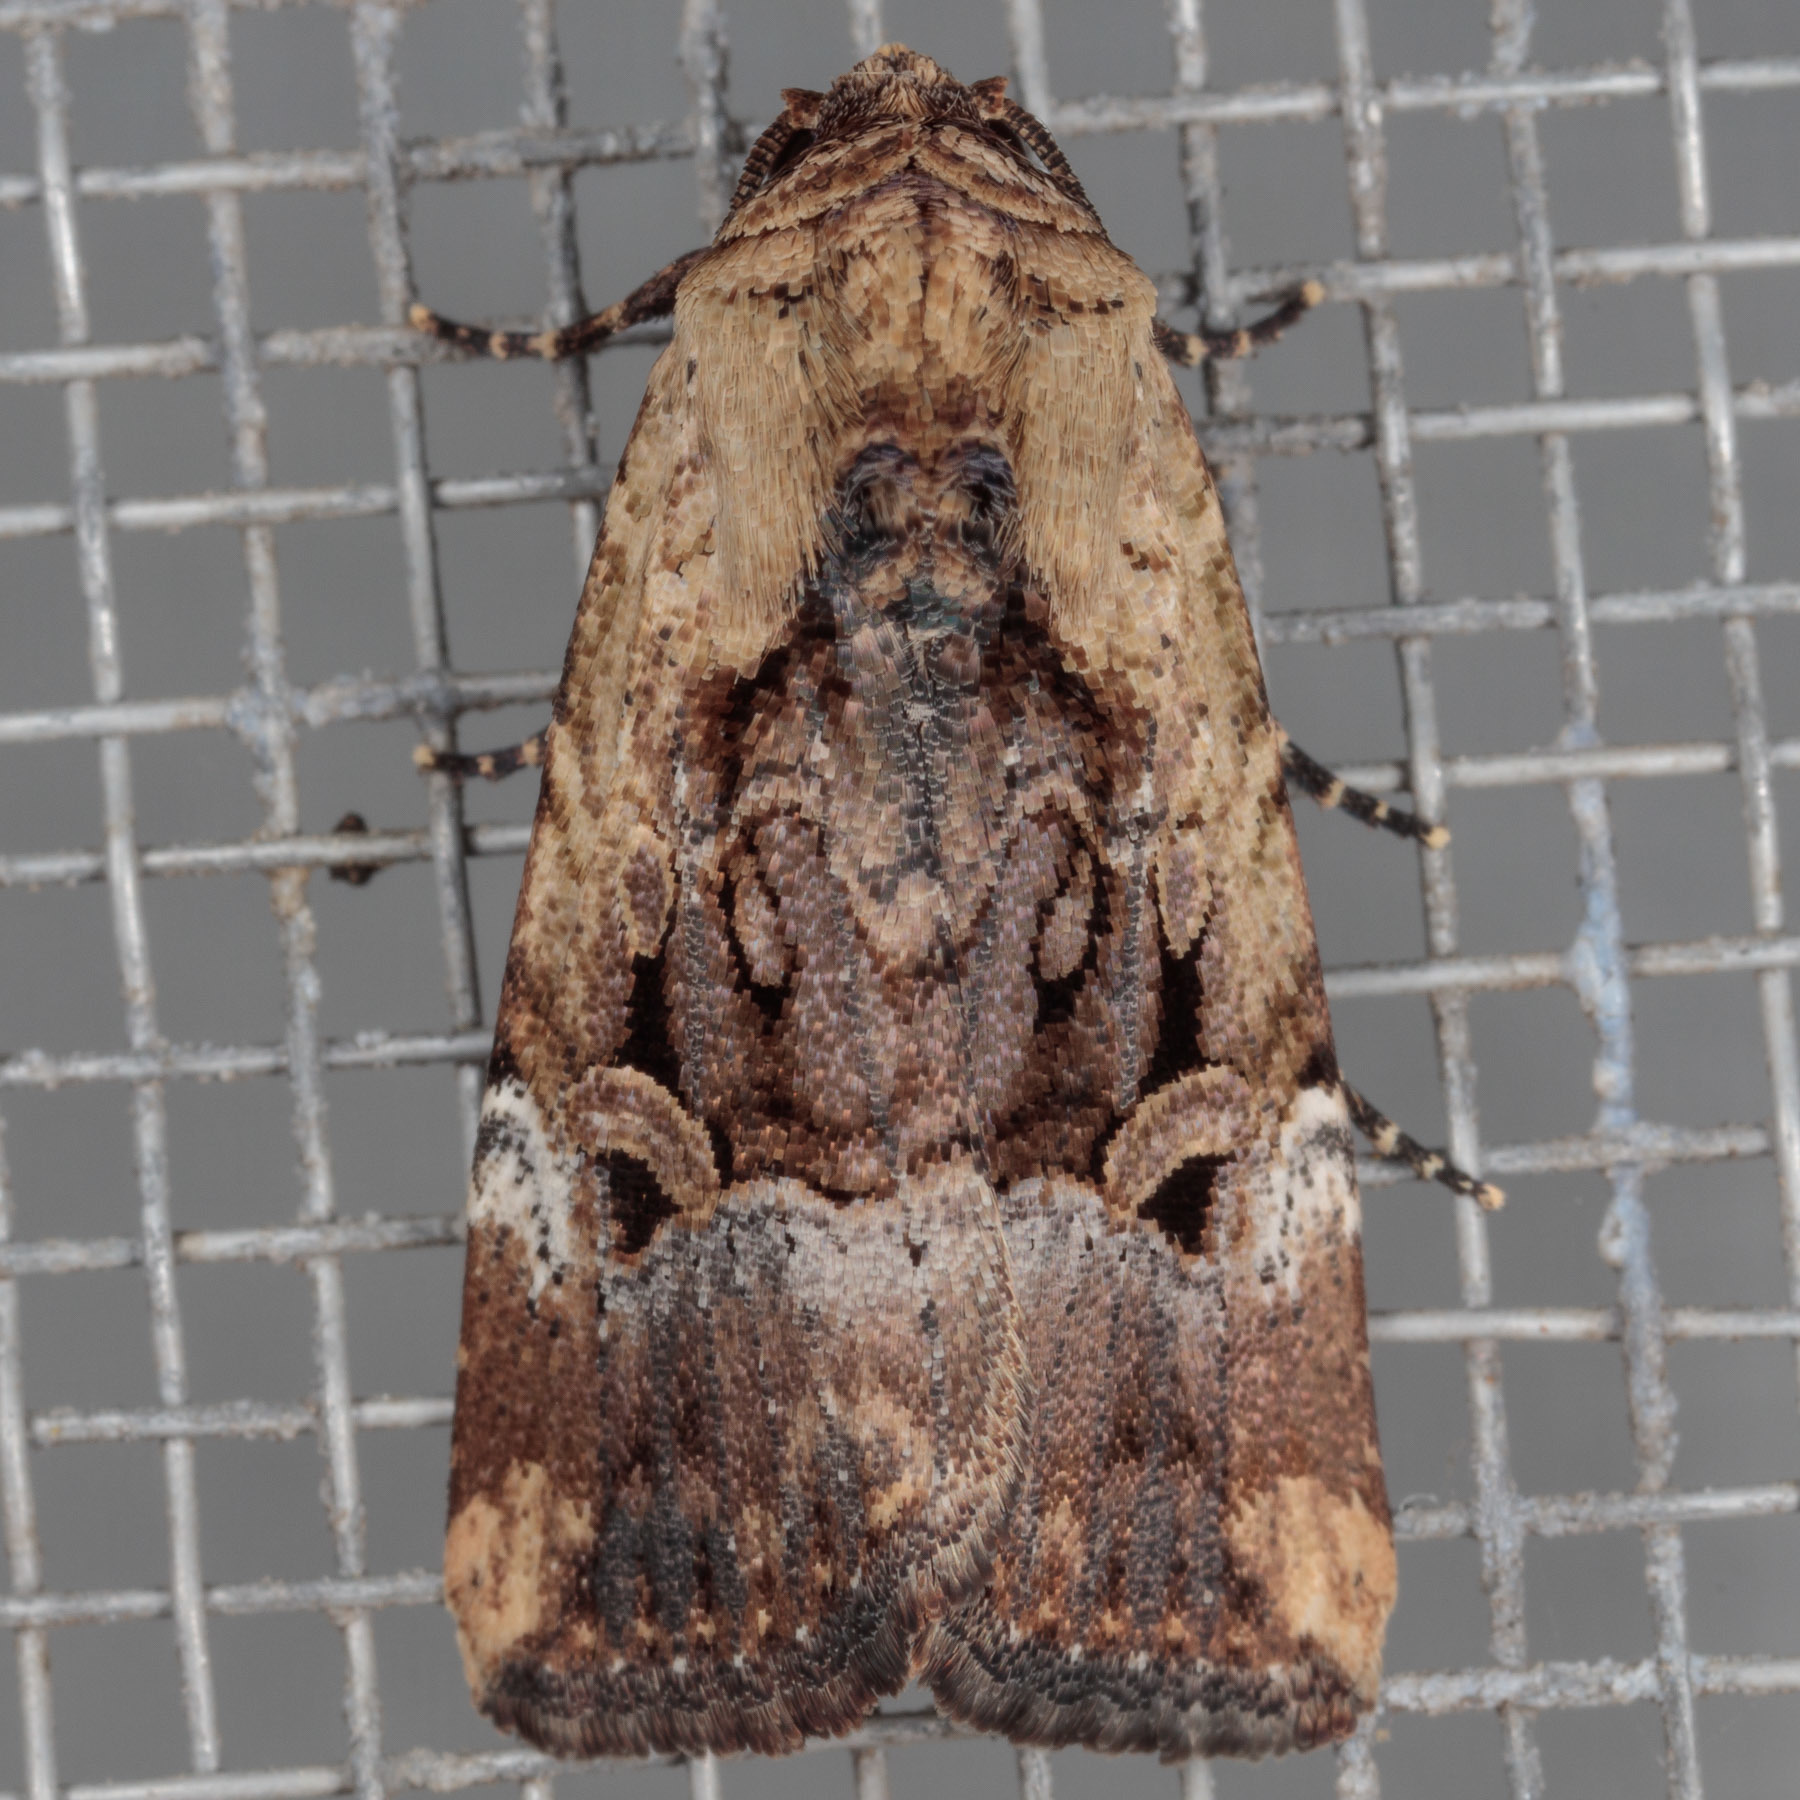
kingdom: Animalia
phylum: Arthropoda
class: Insecta
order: Lepidoptera
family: Noctuidae
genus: Elaphria
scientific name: Elaphria chalcedonia
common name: Chalcedony midget
